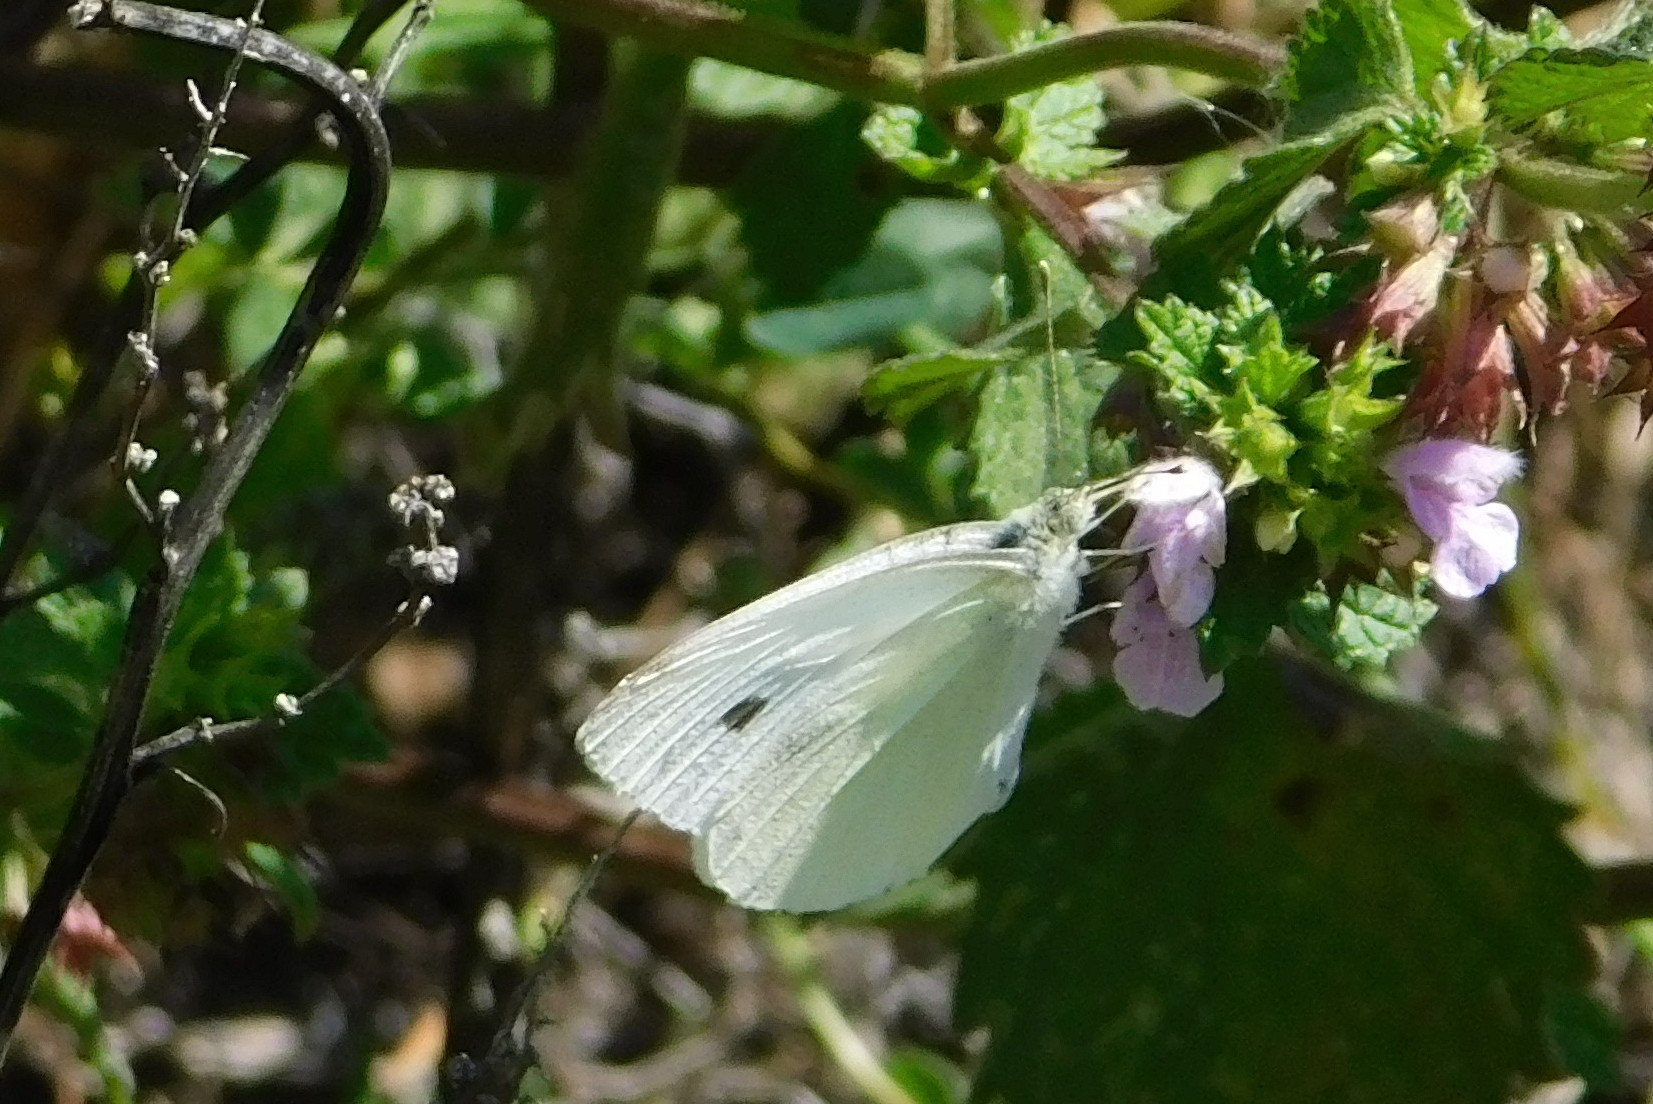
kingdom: Animalia
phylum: Arthropoda
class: Insecta
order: Lepidoptera
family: Pieridae
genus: Pieris
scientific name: Pieris rapae
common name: Small white
